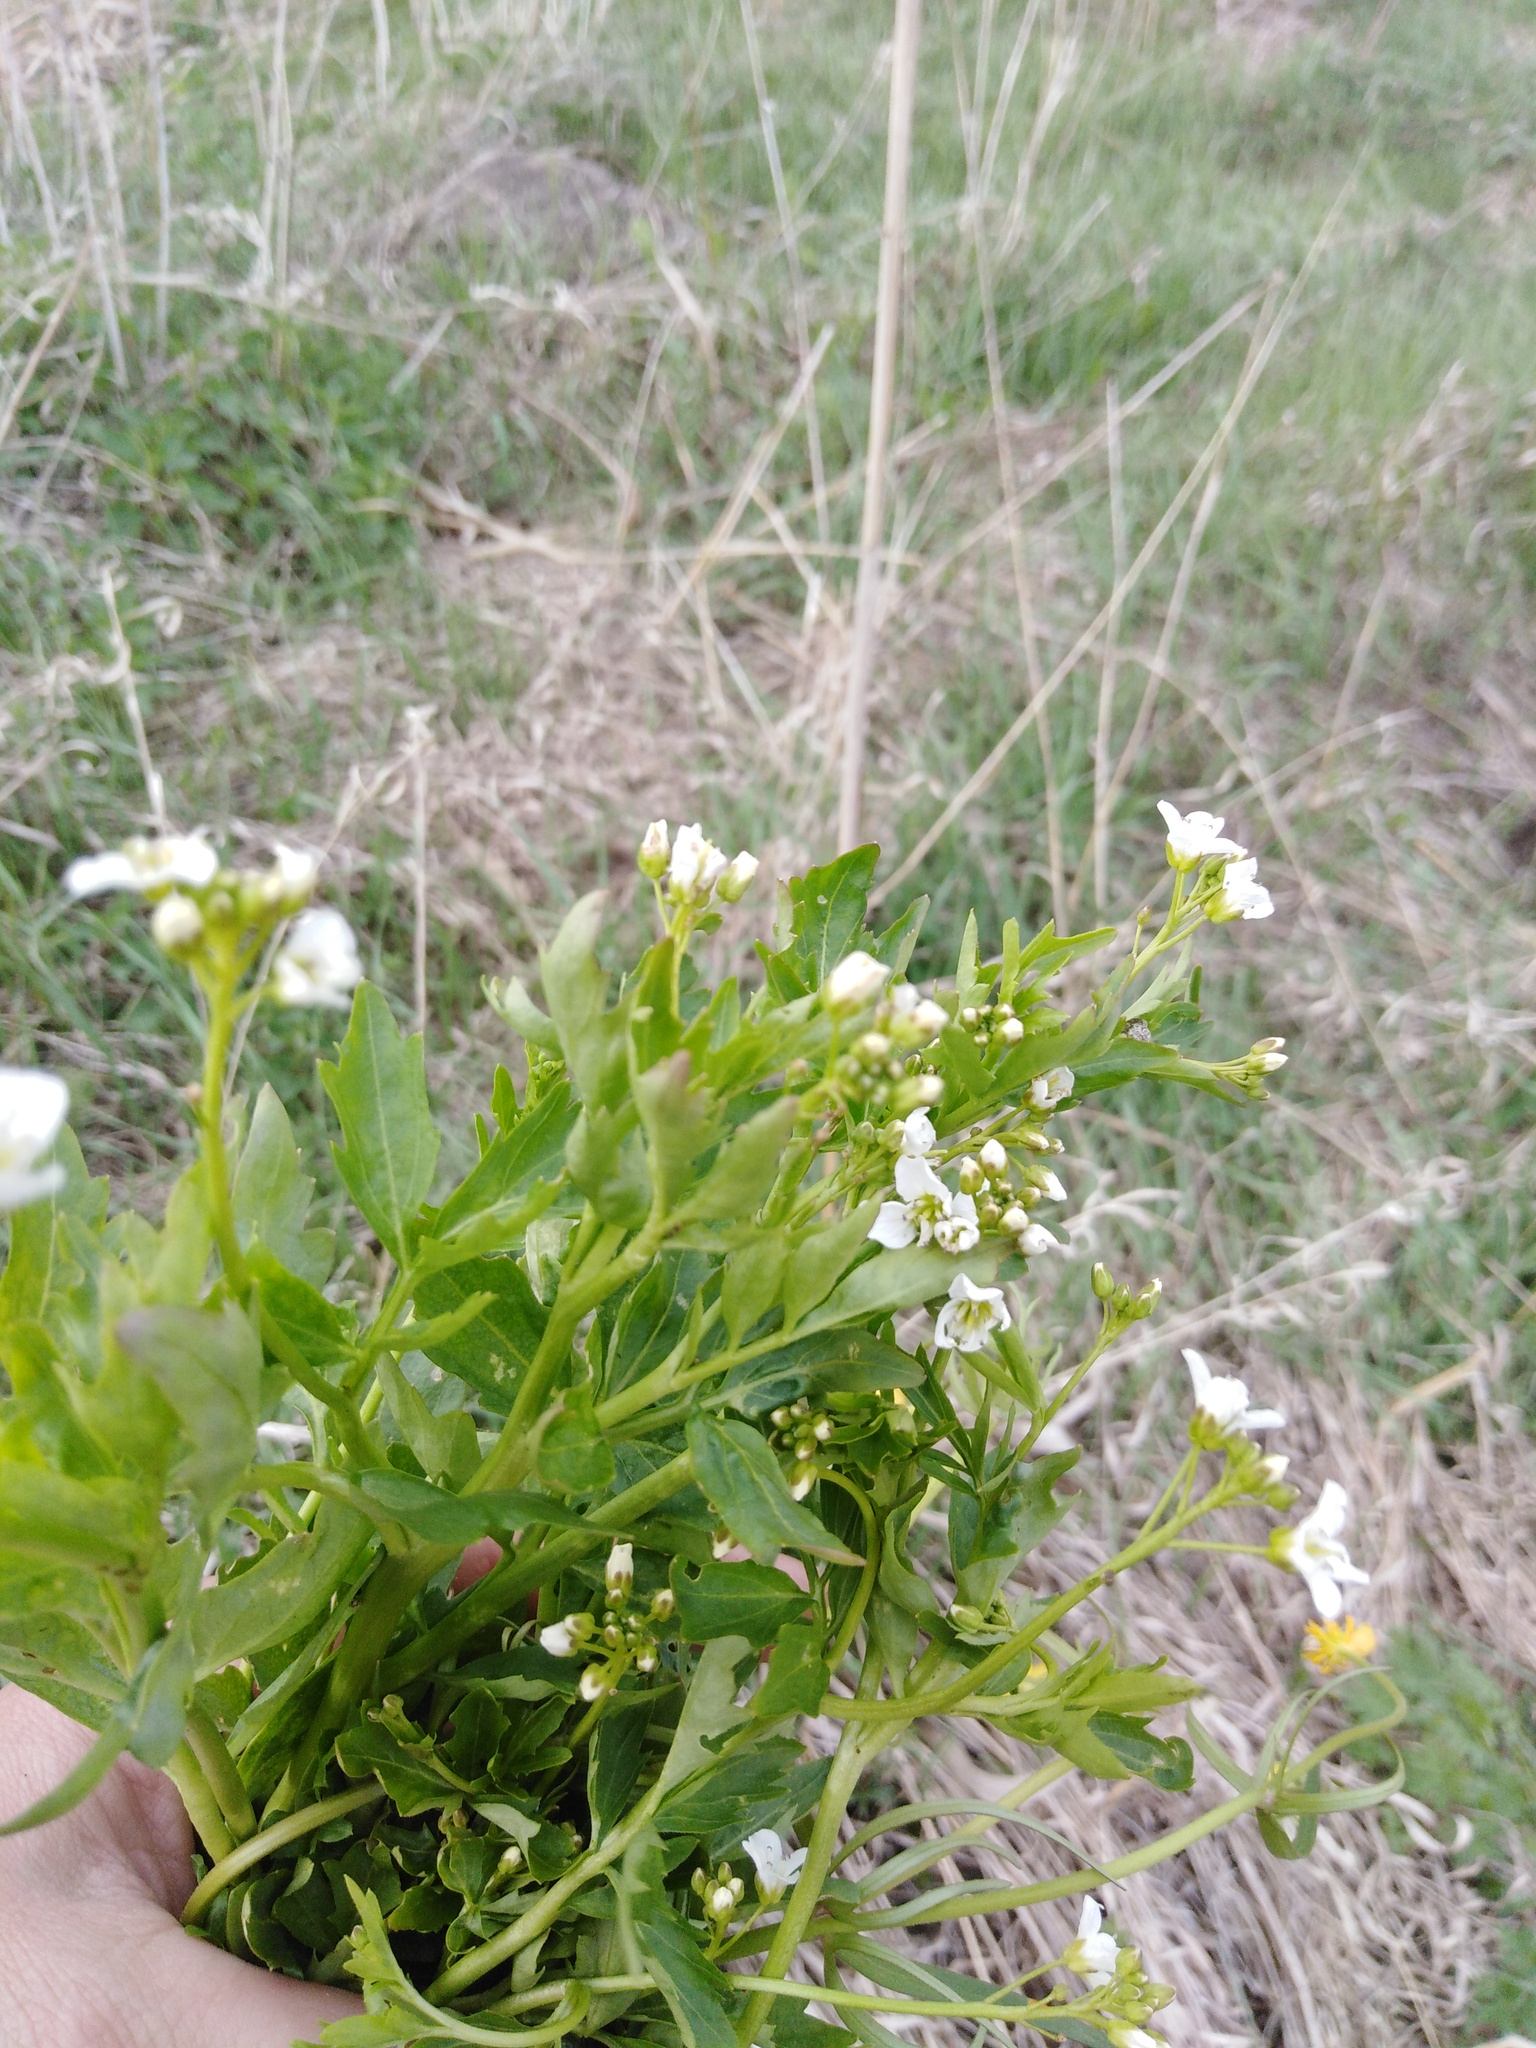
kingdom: Plantae
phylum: Tracheophyta
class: Magnoliopsida
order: Brassicales
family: Brassicaceae
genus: Cardamine
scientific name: Cardamine amara
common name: Large bitter-cress
